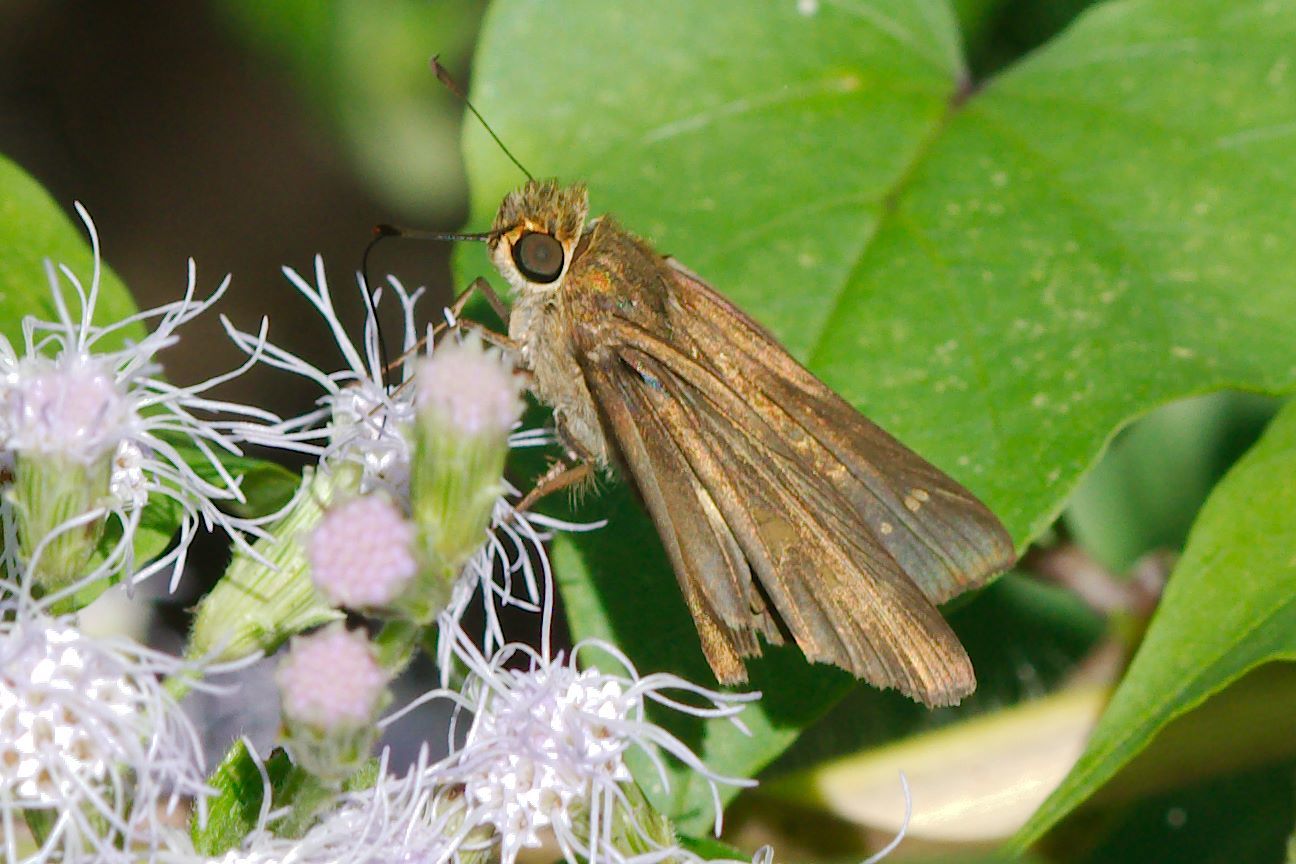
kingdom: Animalia
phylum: Arthropoda
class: Insecta
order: Lepidoptera
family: Hesperiidae
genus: Panoquina
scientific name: Panoquina ocola
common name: Ocola skipper
